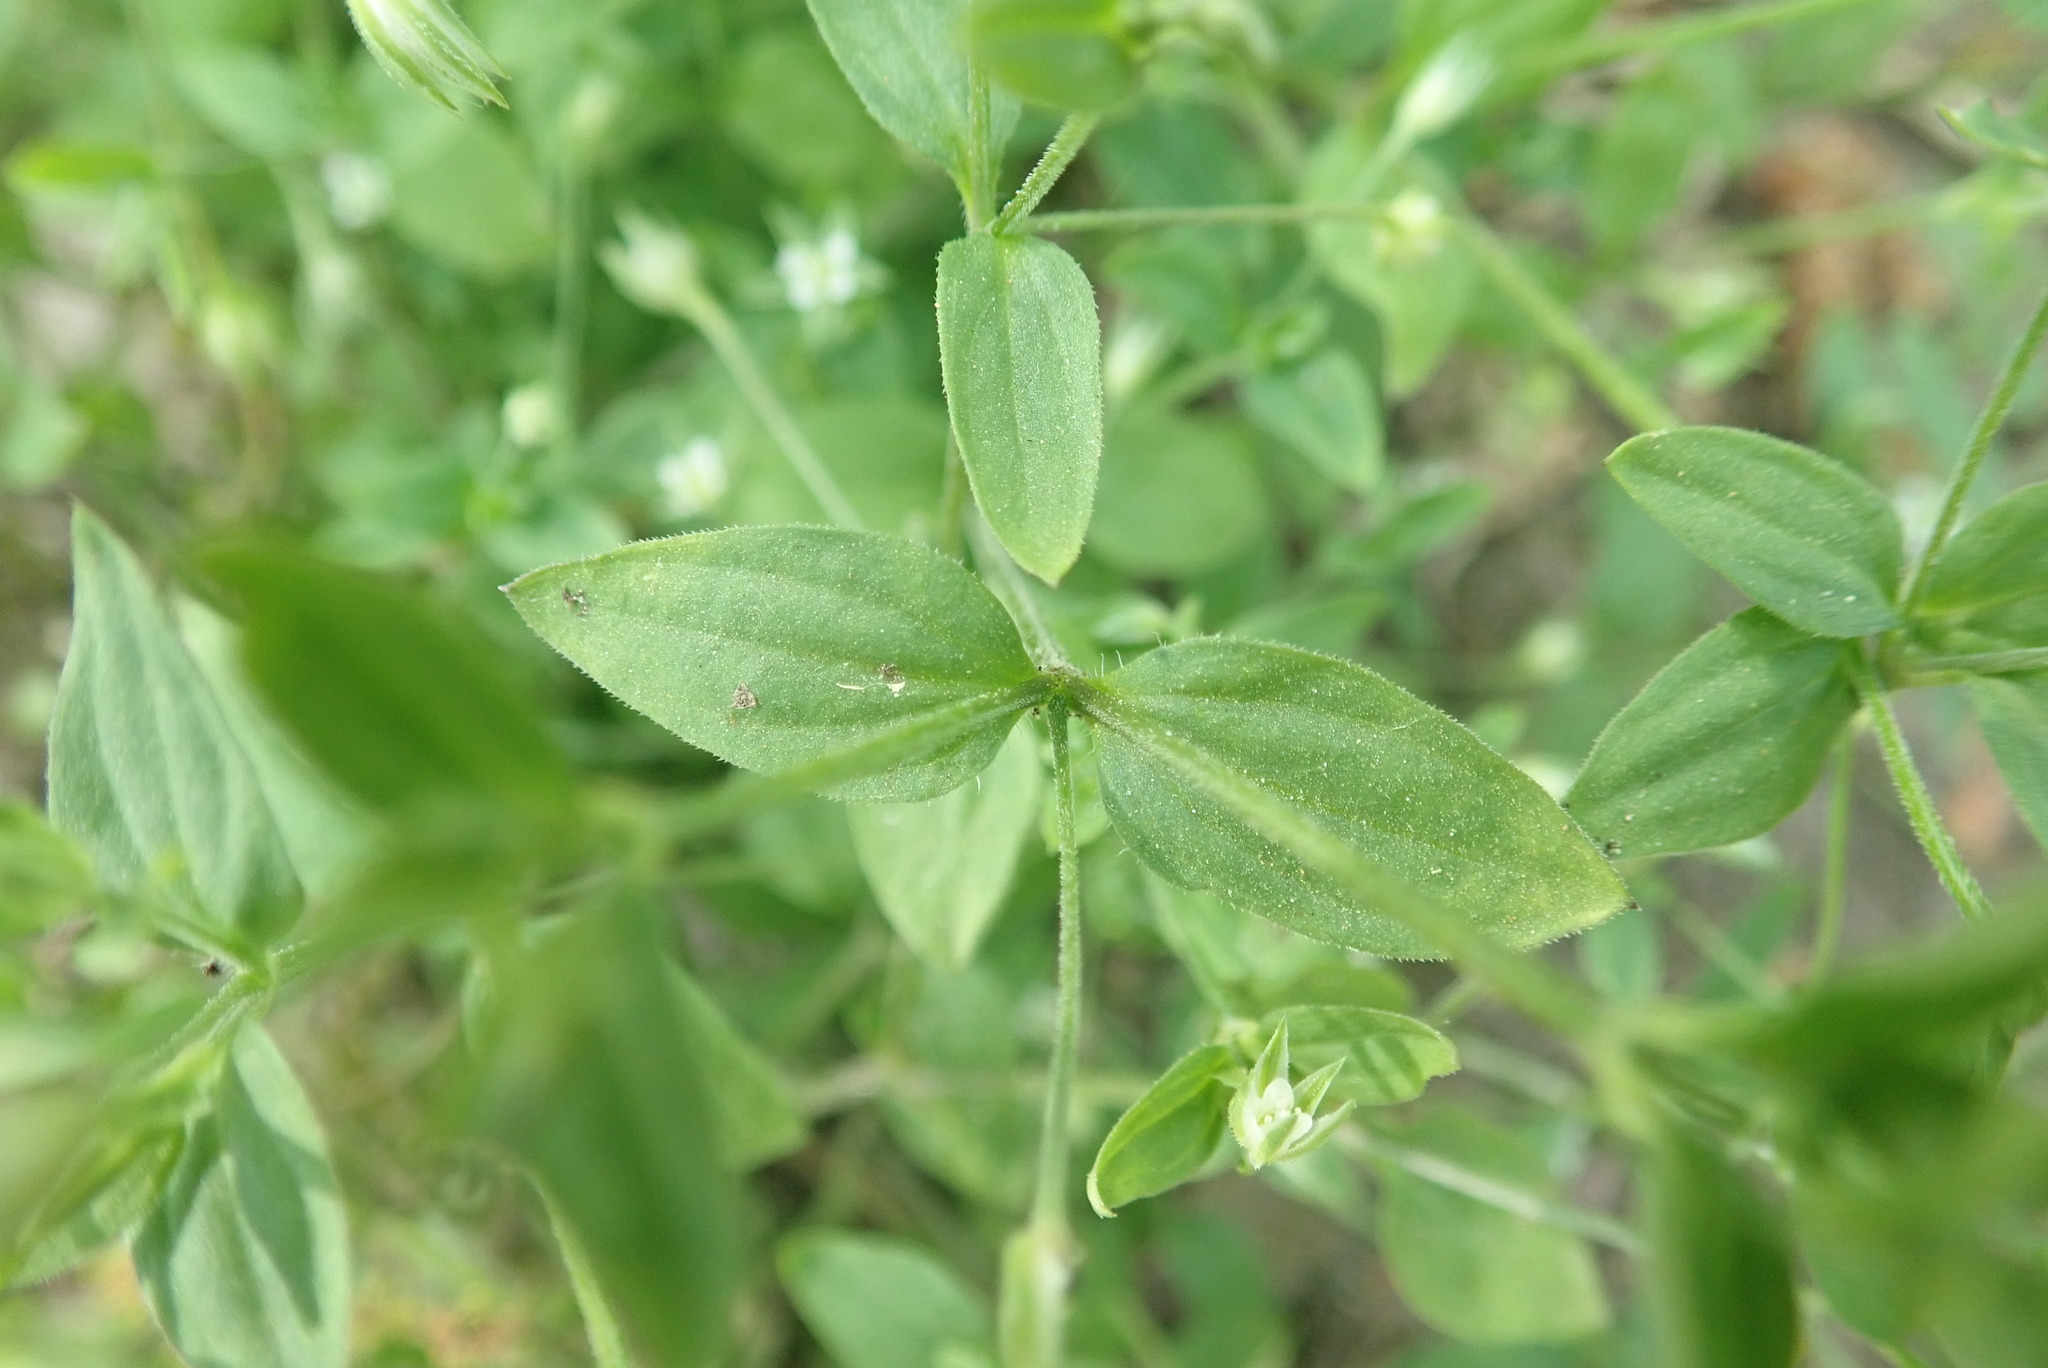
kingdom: Plantae
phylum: Tracheophyta
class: Magnoliopsida
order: Caryophyllales
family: Caryophyllaceae
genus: Moehringia
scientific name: Moehringia trinervia
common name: Three-nerved sandwort
